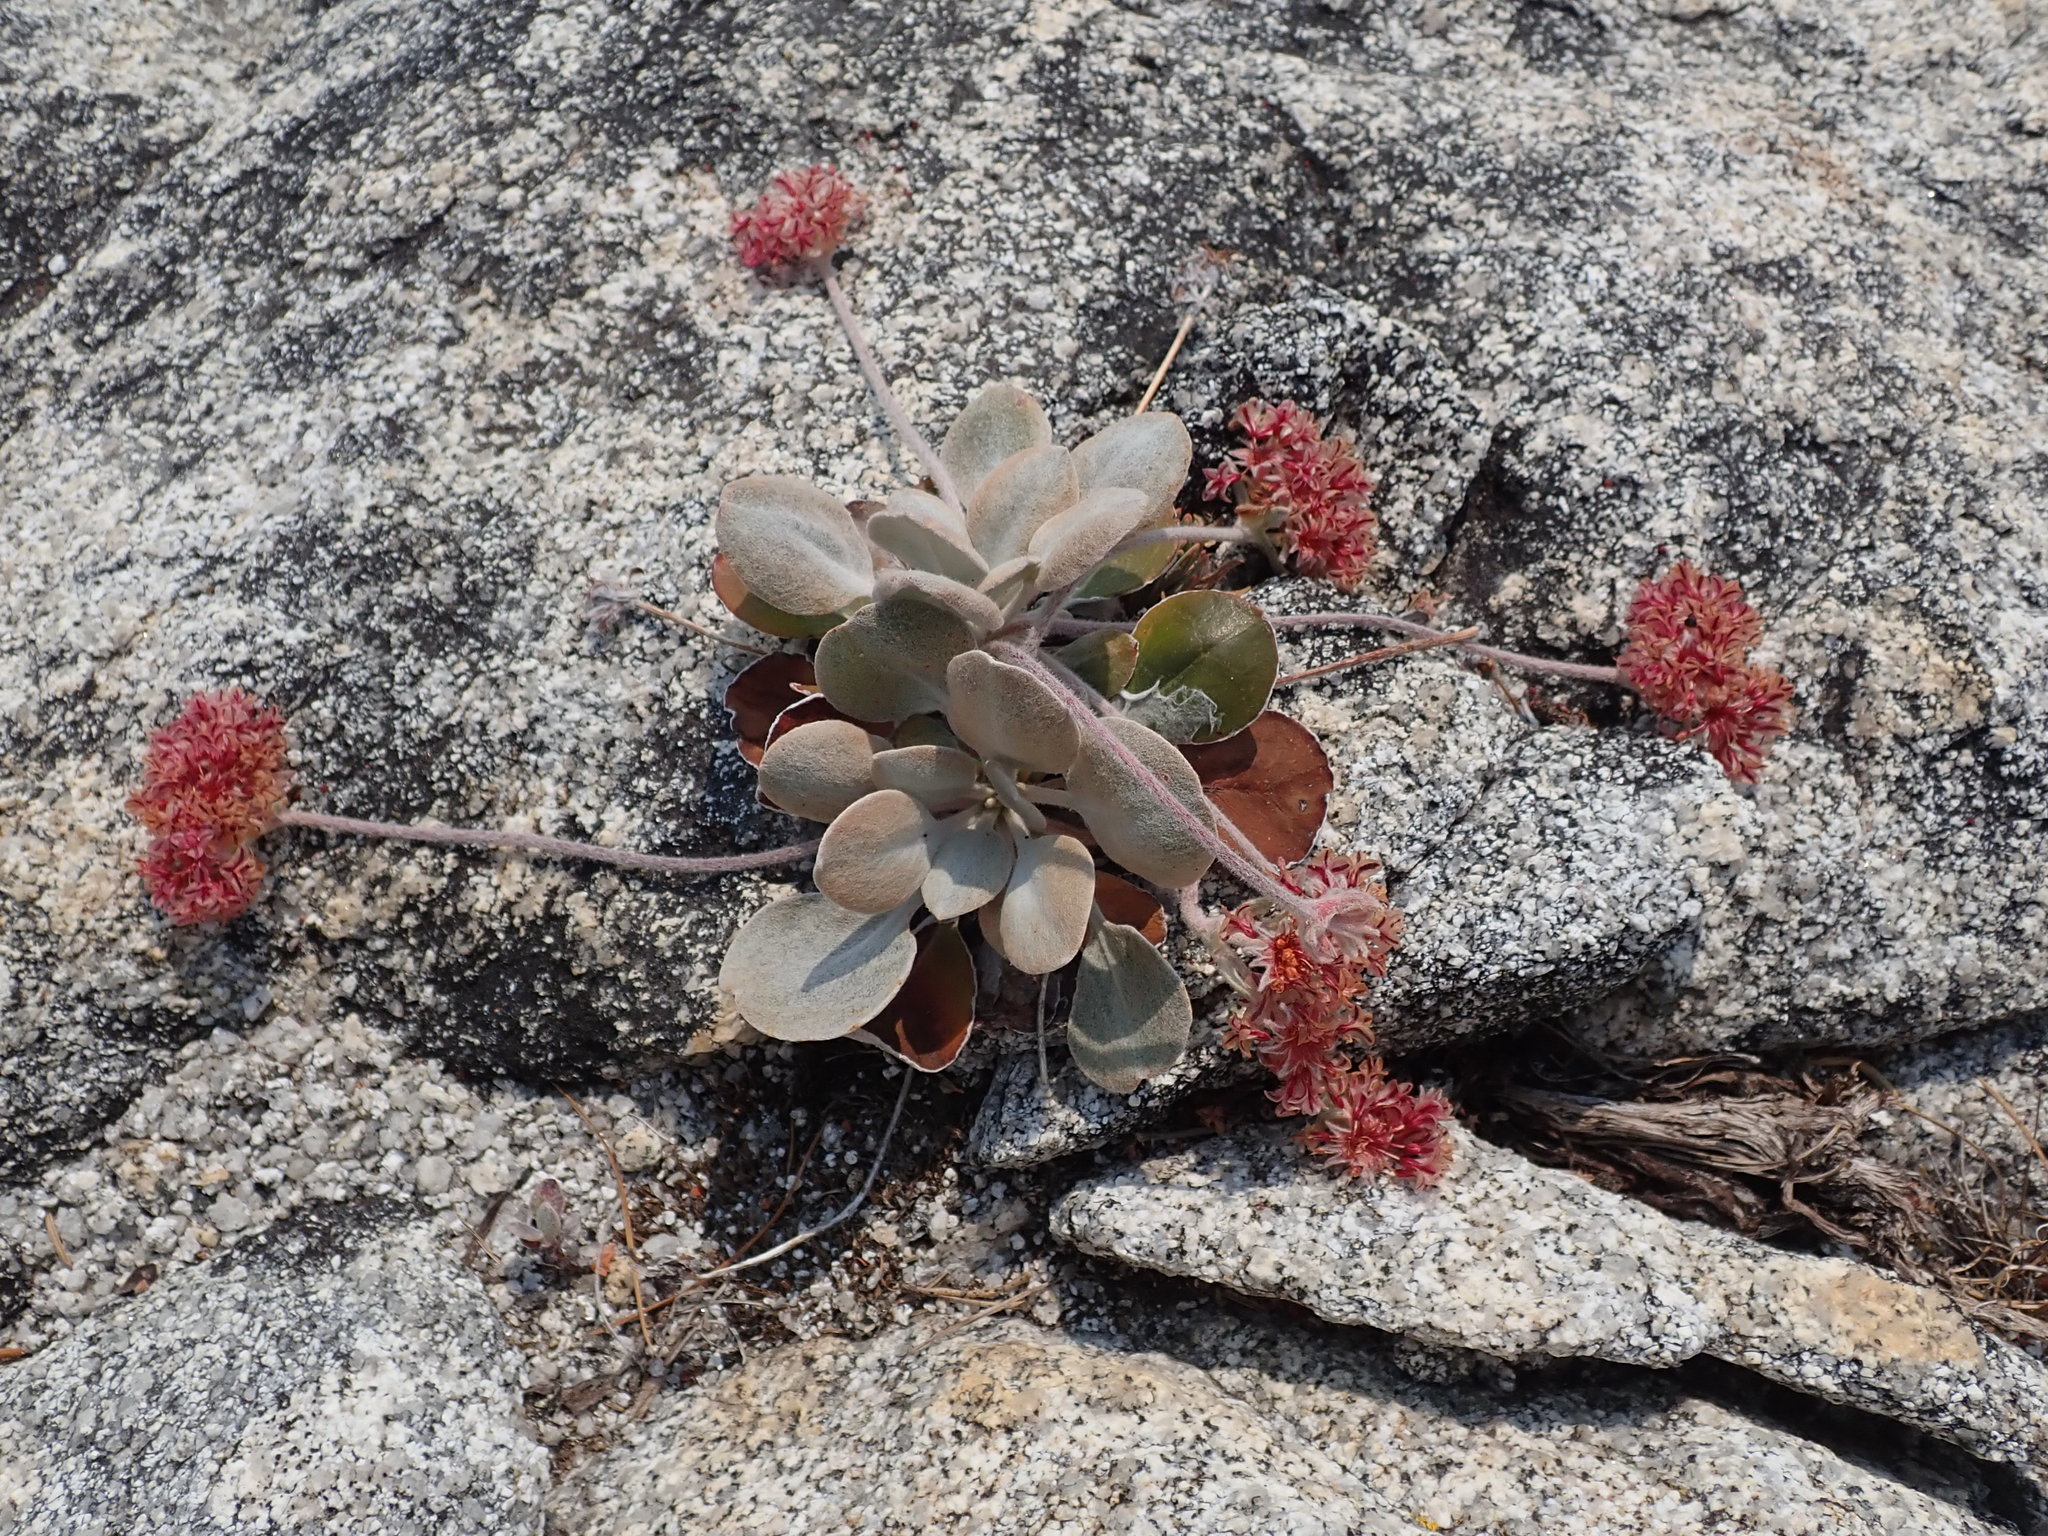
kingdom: Plantae
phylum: Tracheophyta
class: Magnoliopsida
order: Caryophyllales
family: Polygonaceae
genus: Eriogonum
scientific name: Eriogonum lobbii
